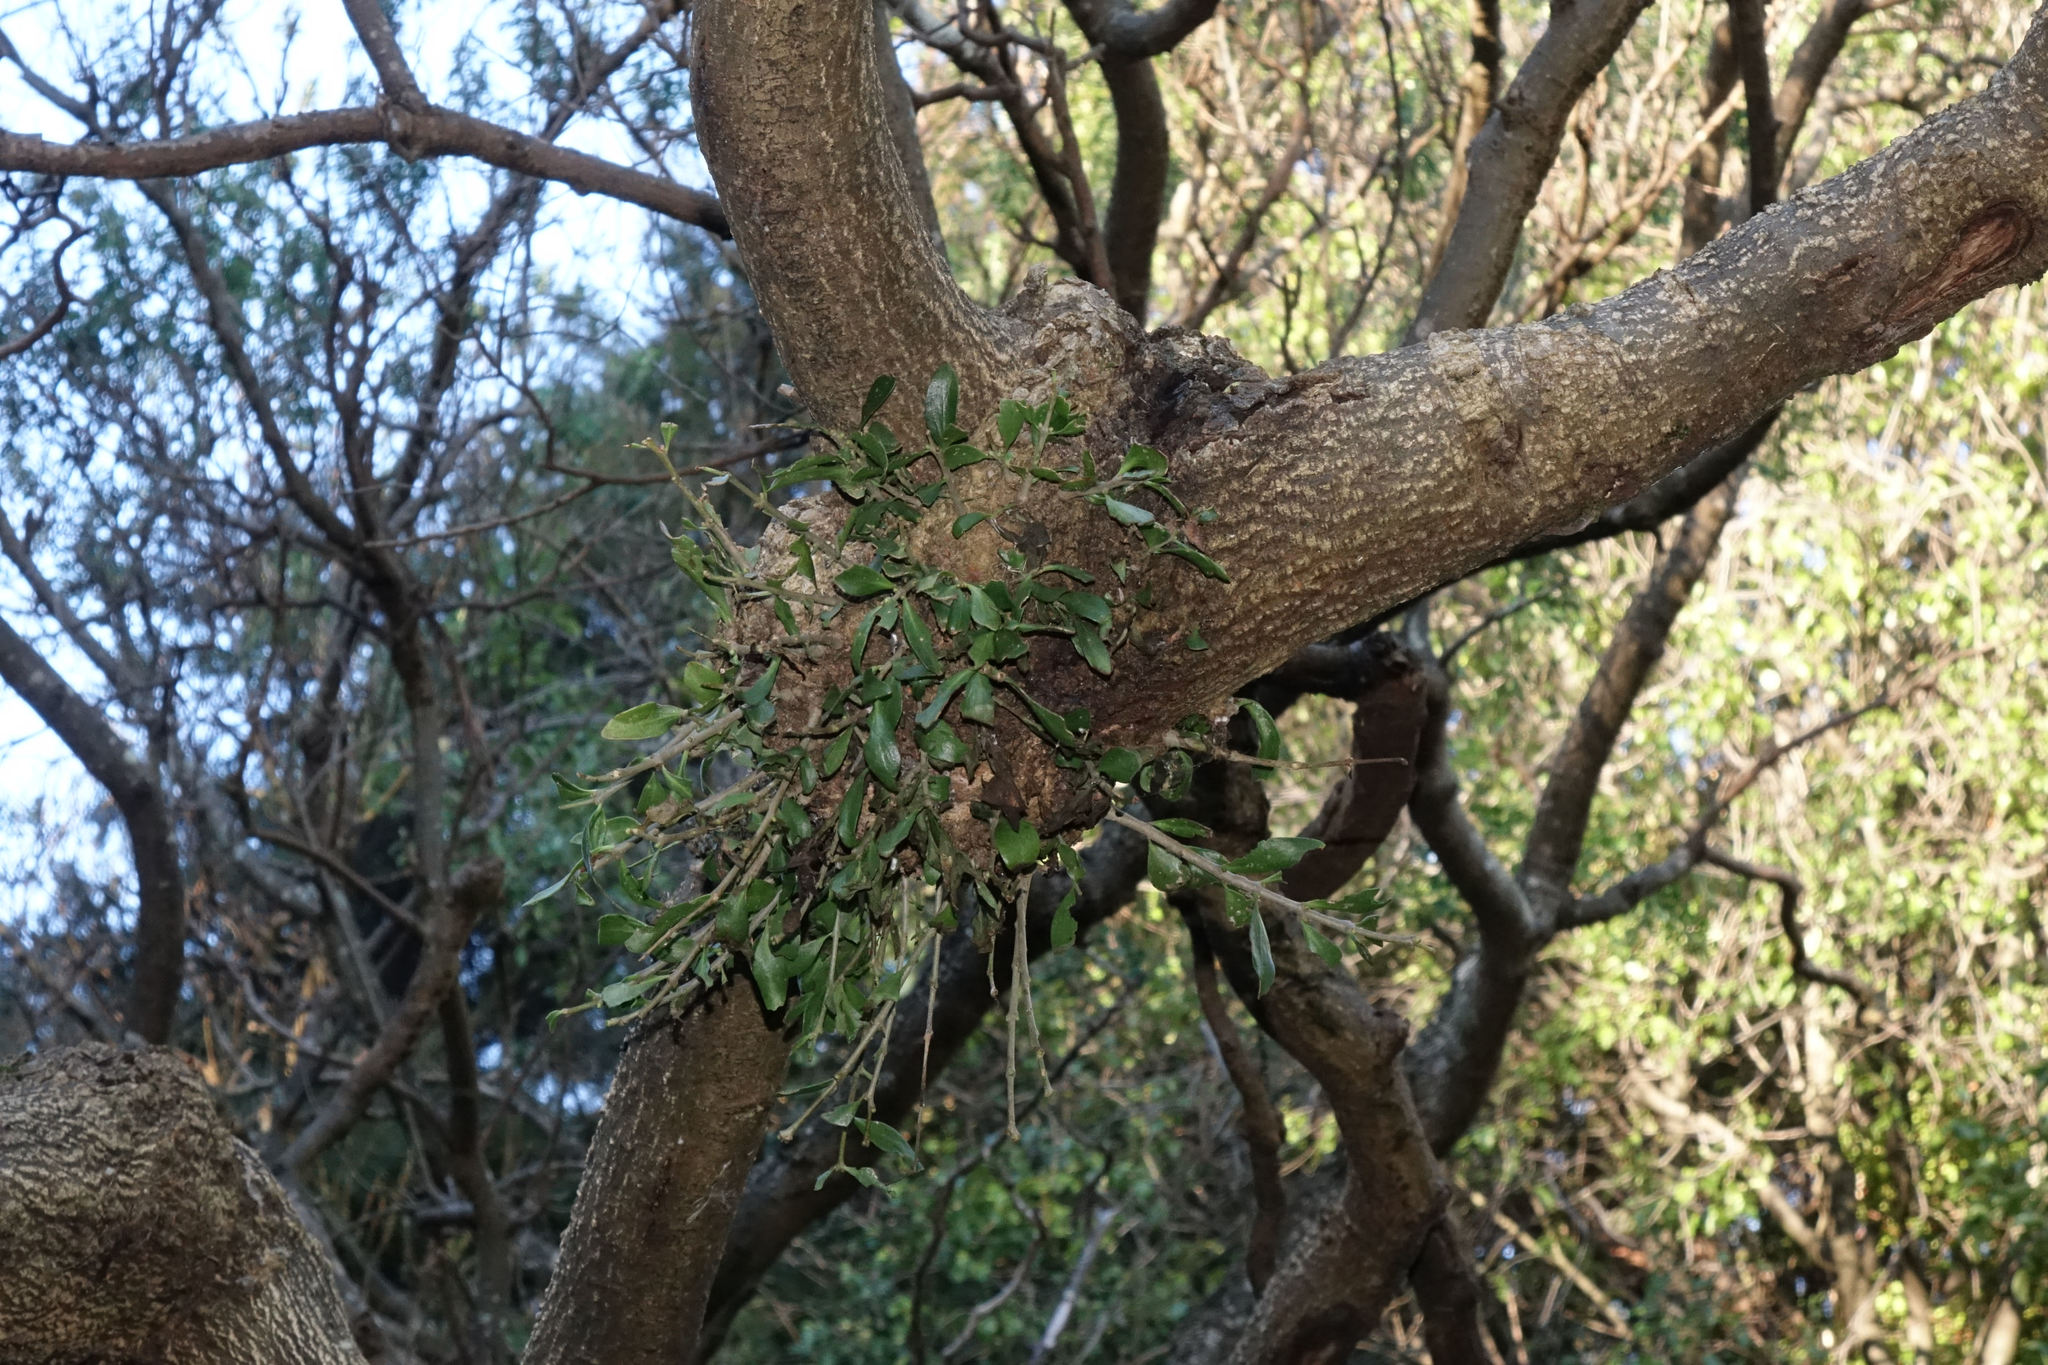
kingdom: Plantae
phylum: Tracheophyta
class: Magnoliopsida
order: Santalales
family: Loranthaceae
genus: Tupeia
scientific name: Tupeia antarctica
